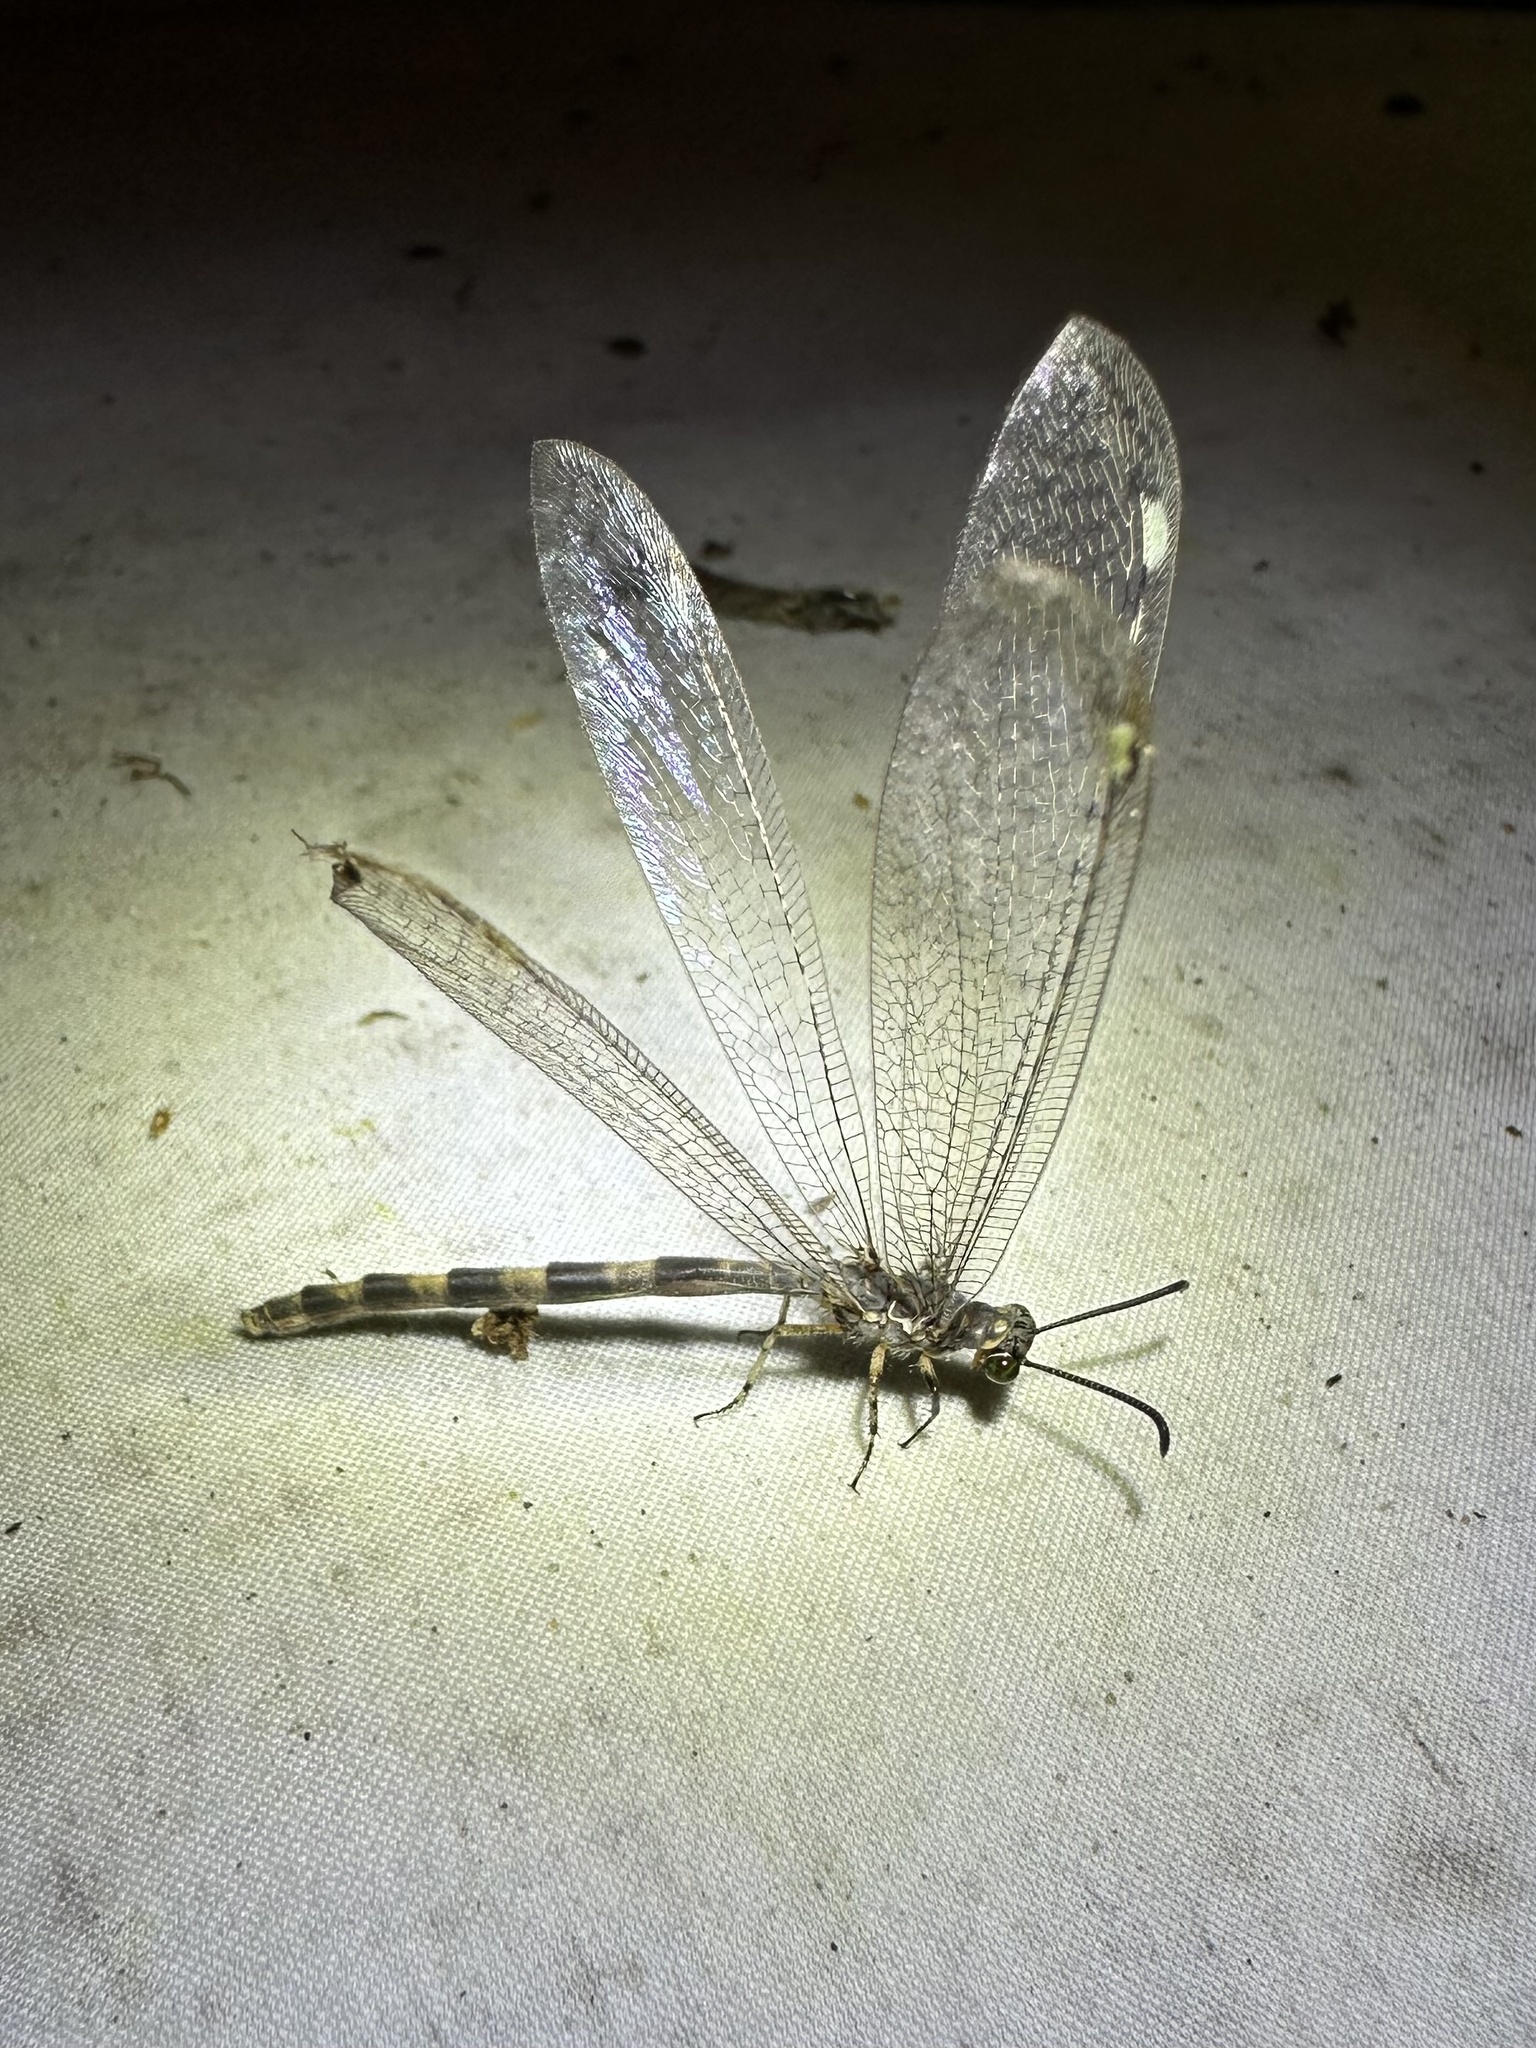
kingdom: Animalia
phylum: Arthropoda
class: Insecta
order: Neuroptera
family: Myrmeleontidae
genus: Myrmeleon
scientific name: Myrmeleon immaculatus
